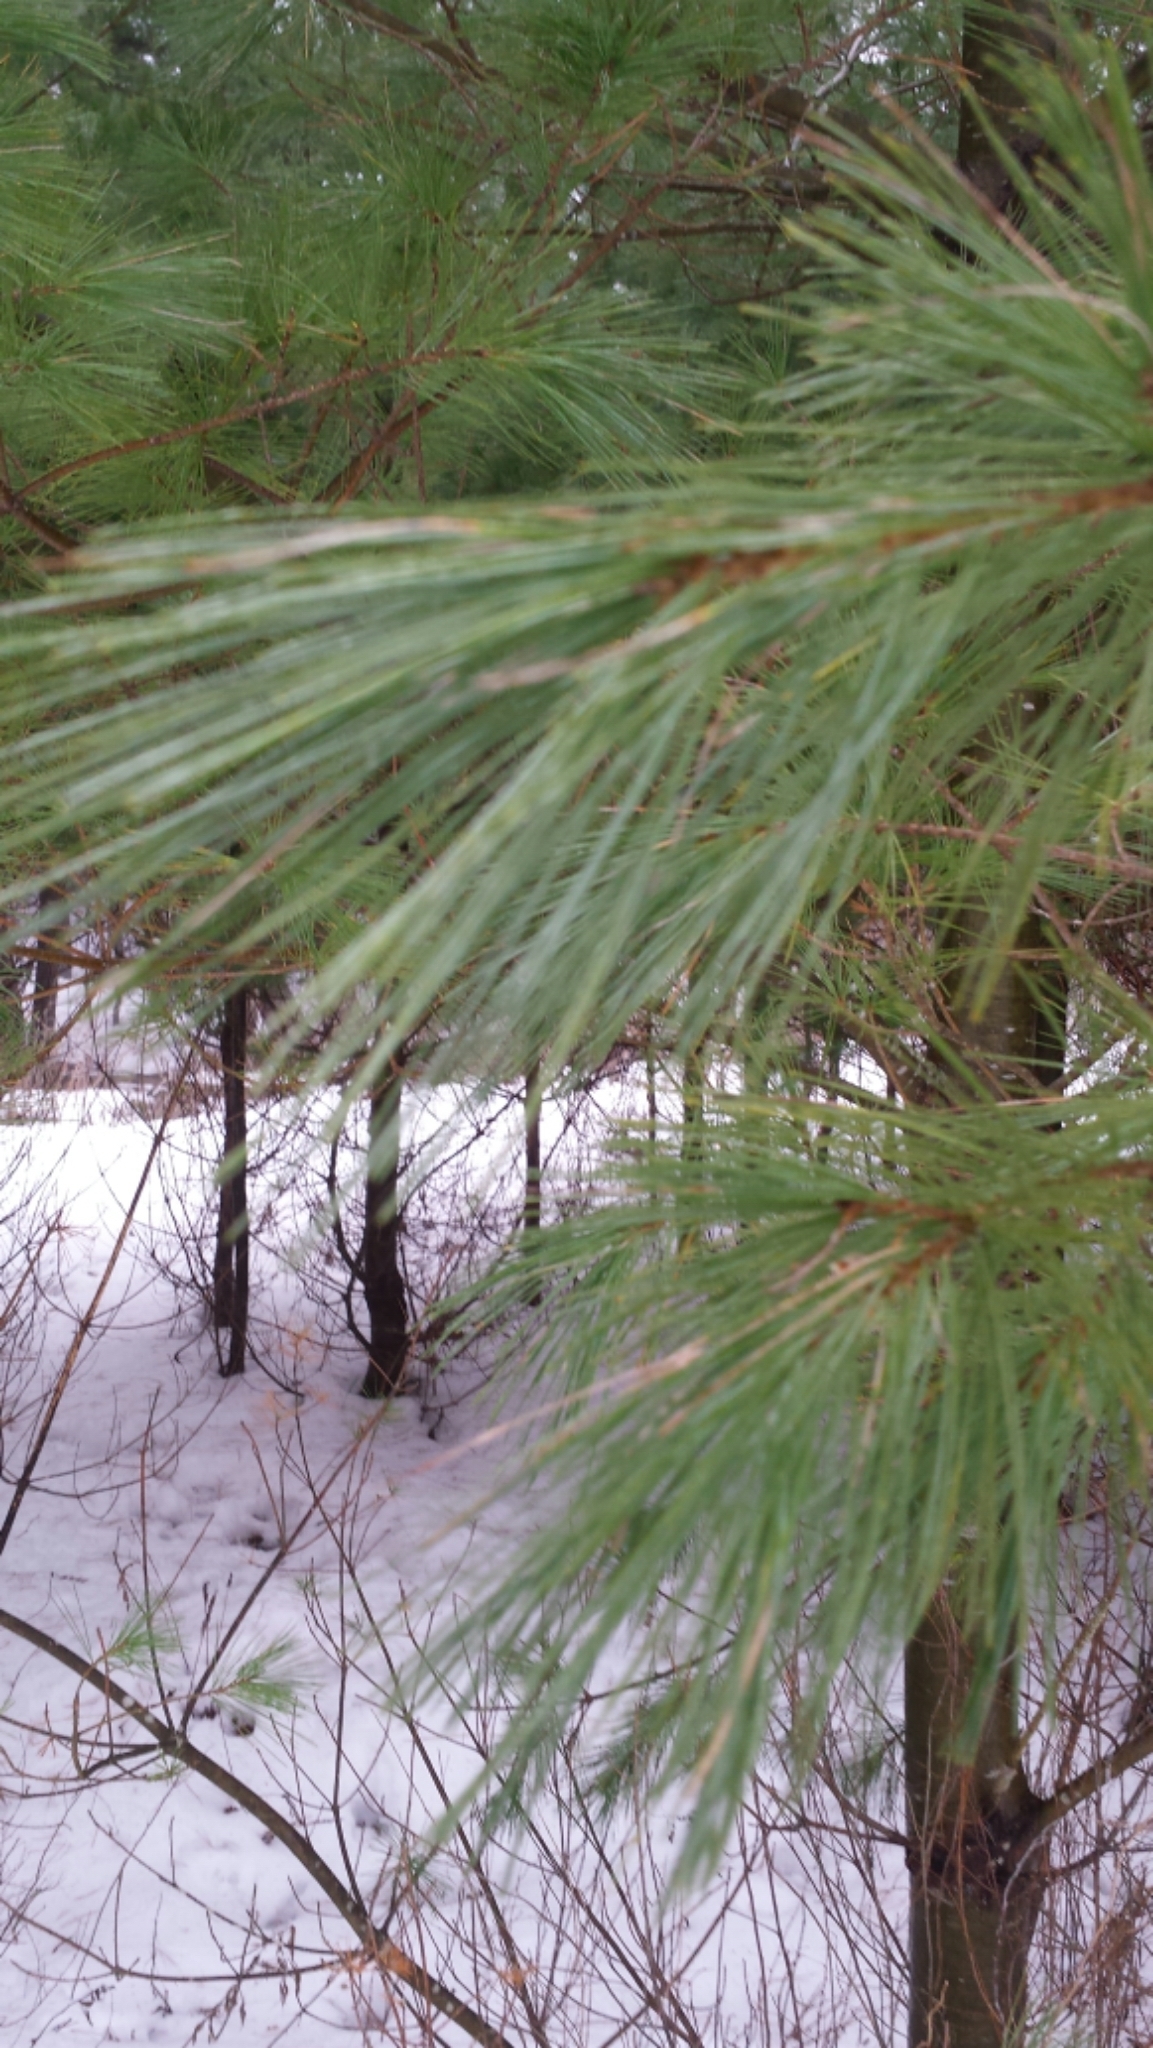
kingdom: Plantae
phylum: Tracheophyta
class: Pinopsida
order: Pinales
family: Pinaceae
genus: Pinus
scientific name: Pinus strobus
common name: Weymouth pine
